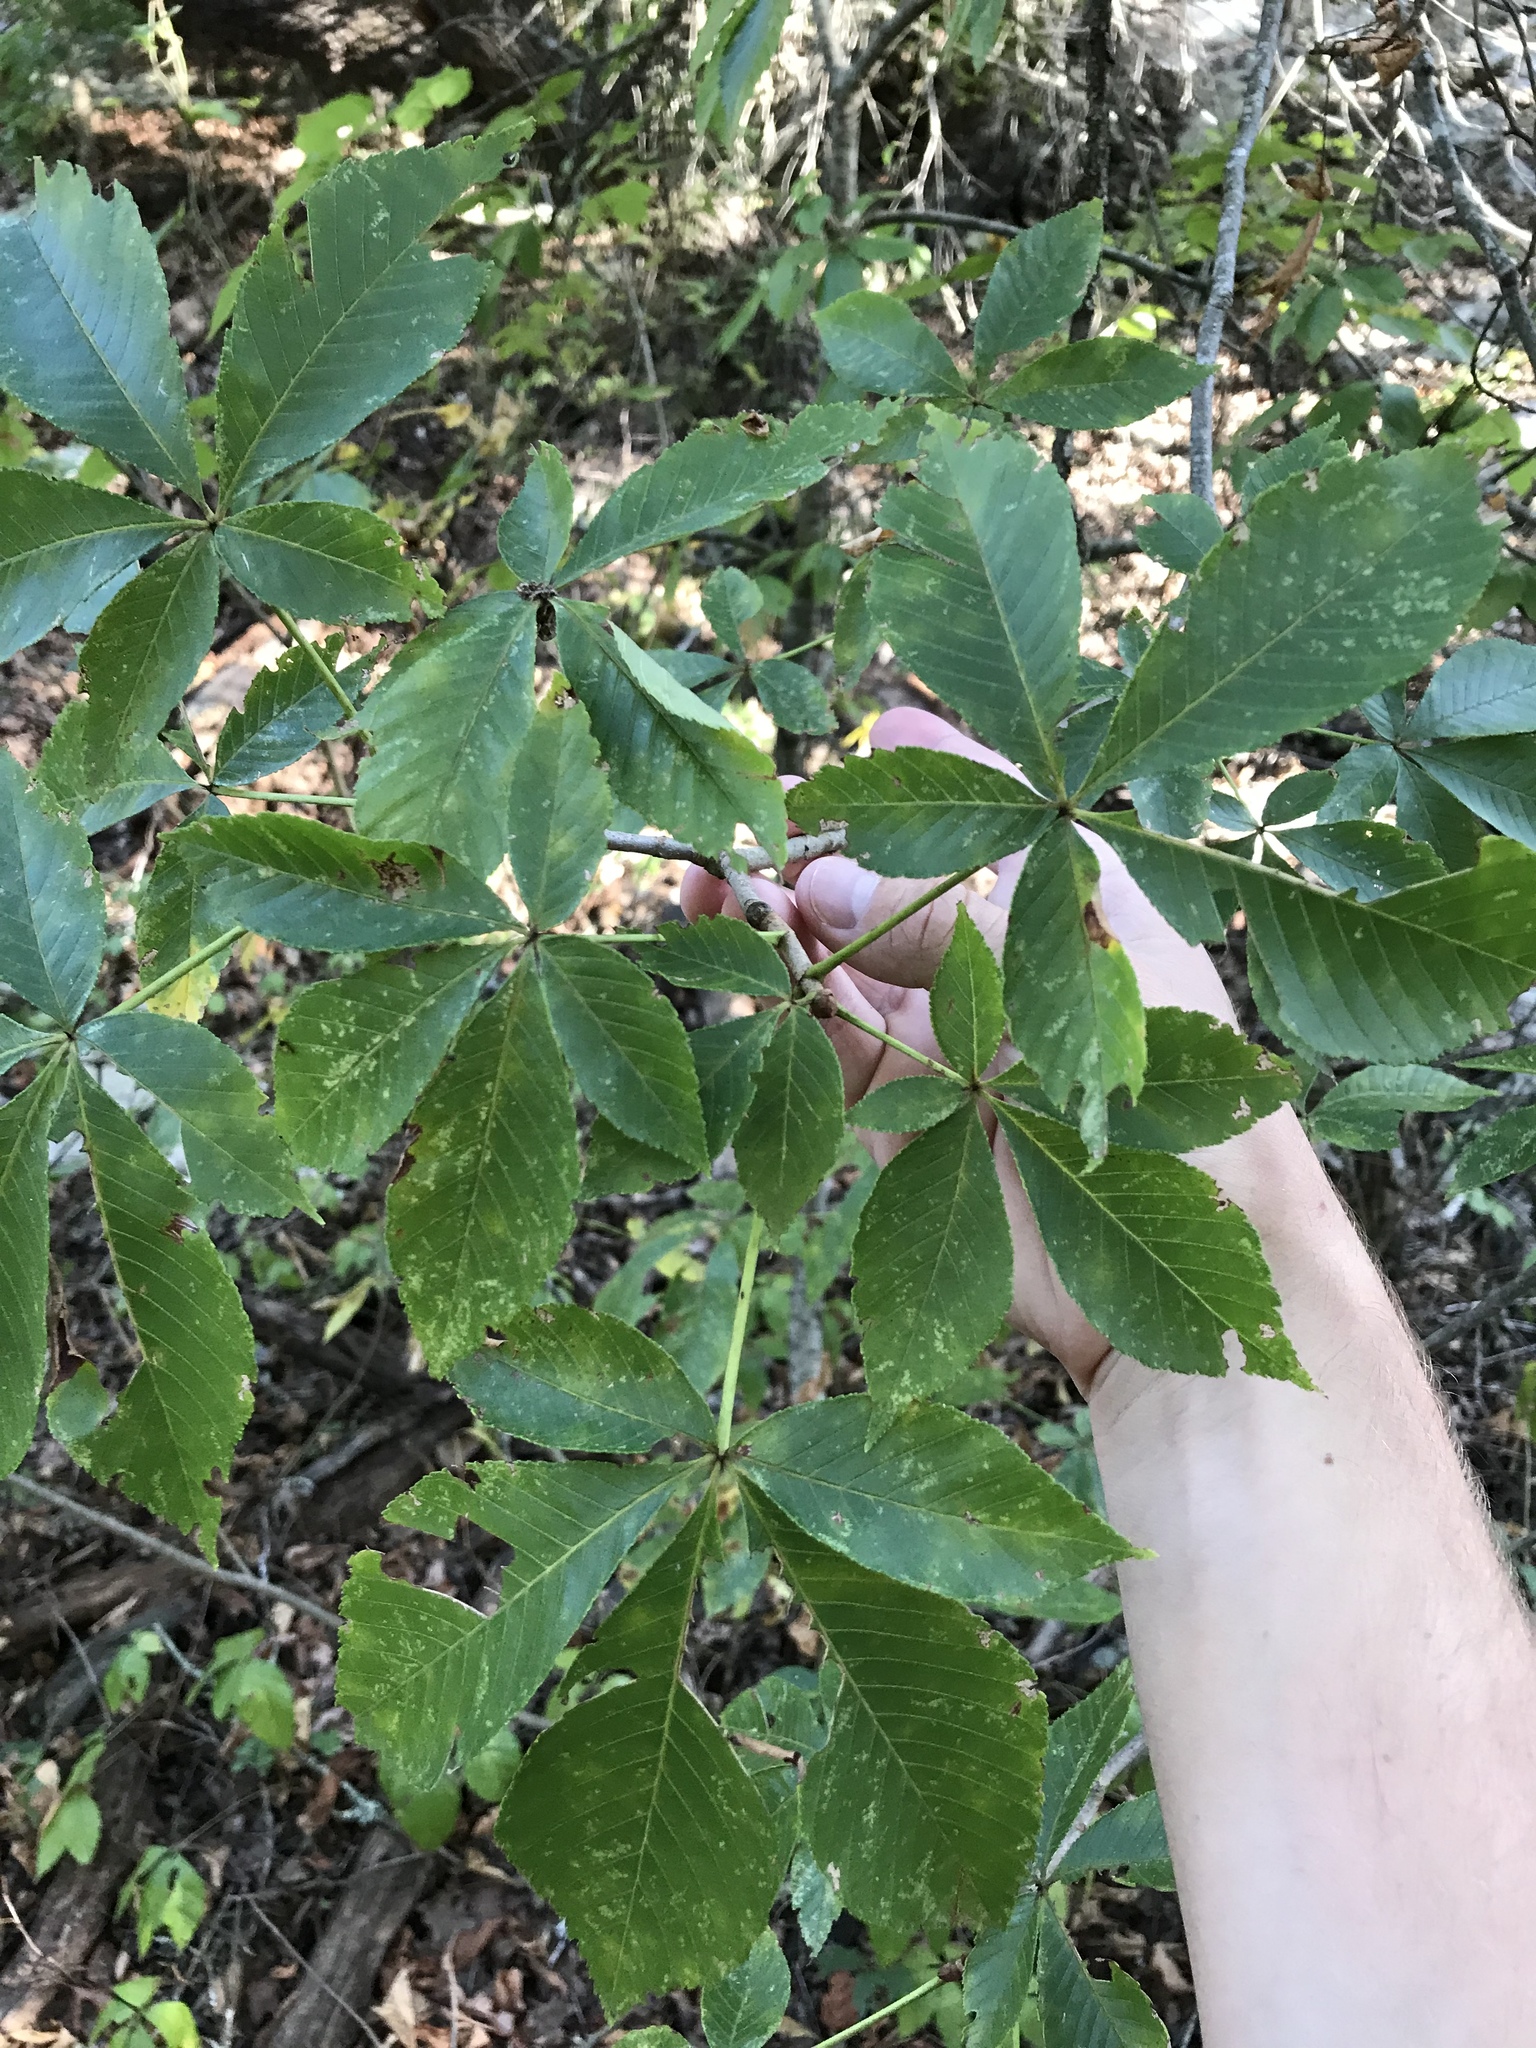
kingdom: Plantae
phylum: Tracheophyta
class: Magnoliopsida
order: Sapindales
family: Sapindaceae
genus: Aesculus
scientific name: Aesculus pavia
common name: Red buckeye
